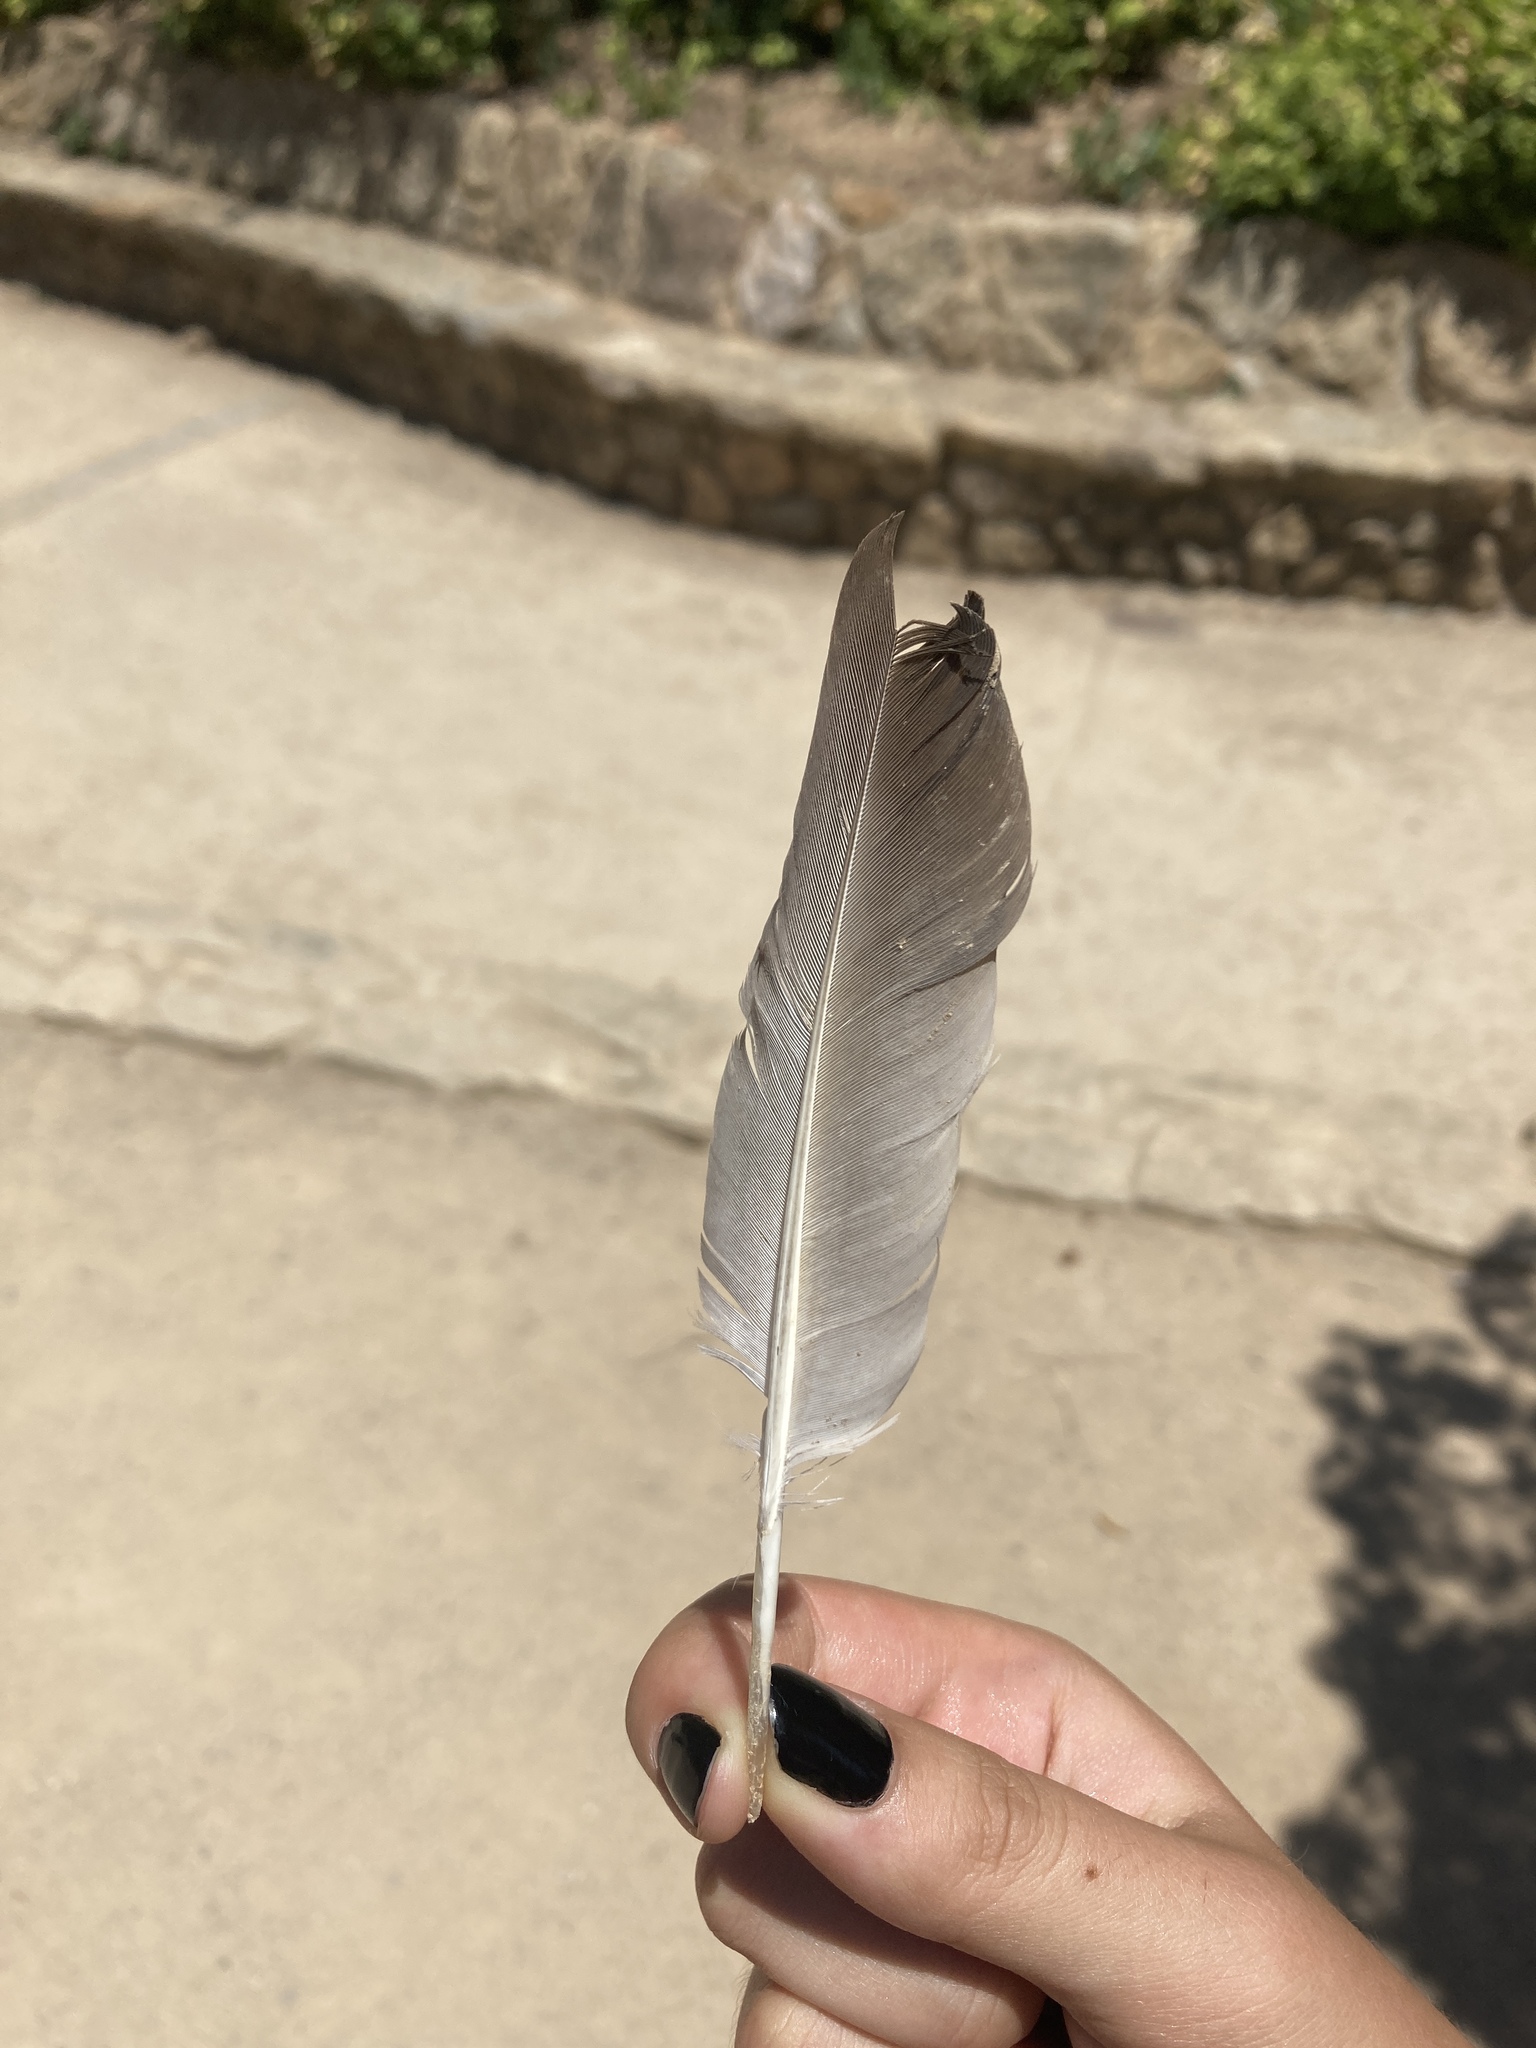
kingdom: Animalia
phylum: Chordata
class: Aves
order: Columbiformes
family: Columbidae
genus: Columba
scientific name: Columba livia
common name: Rock pigeon
